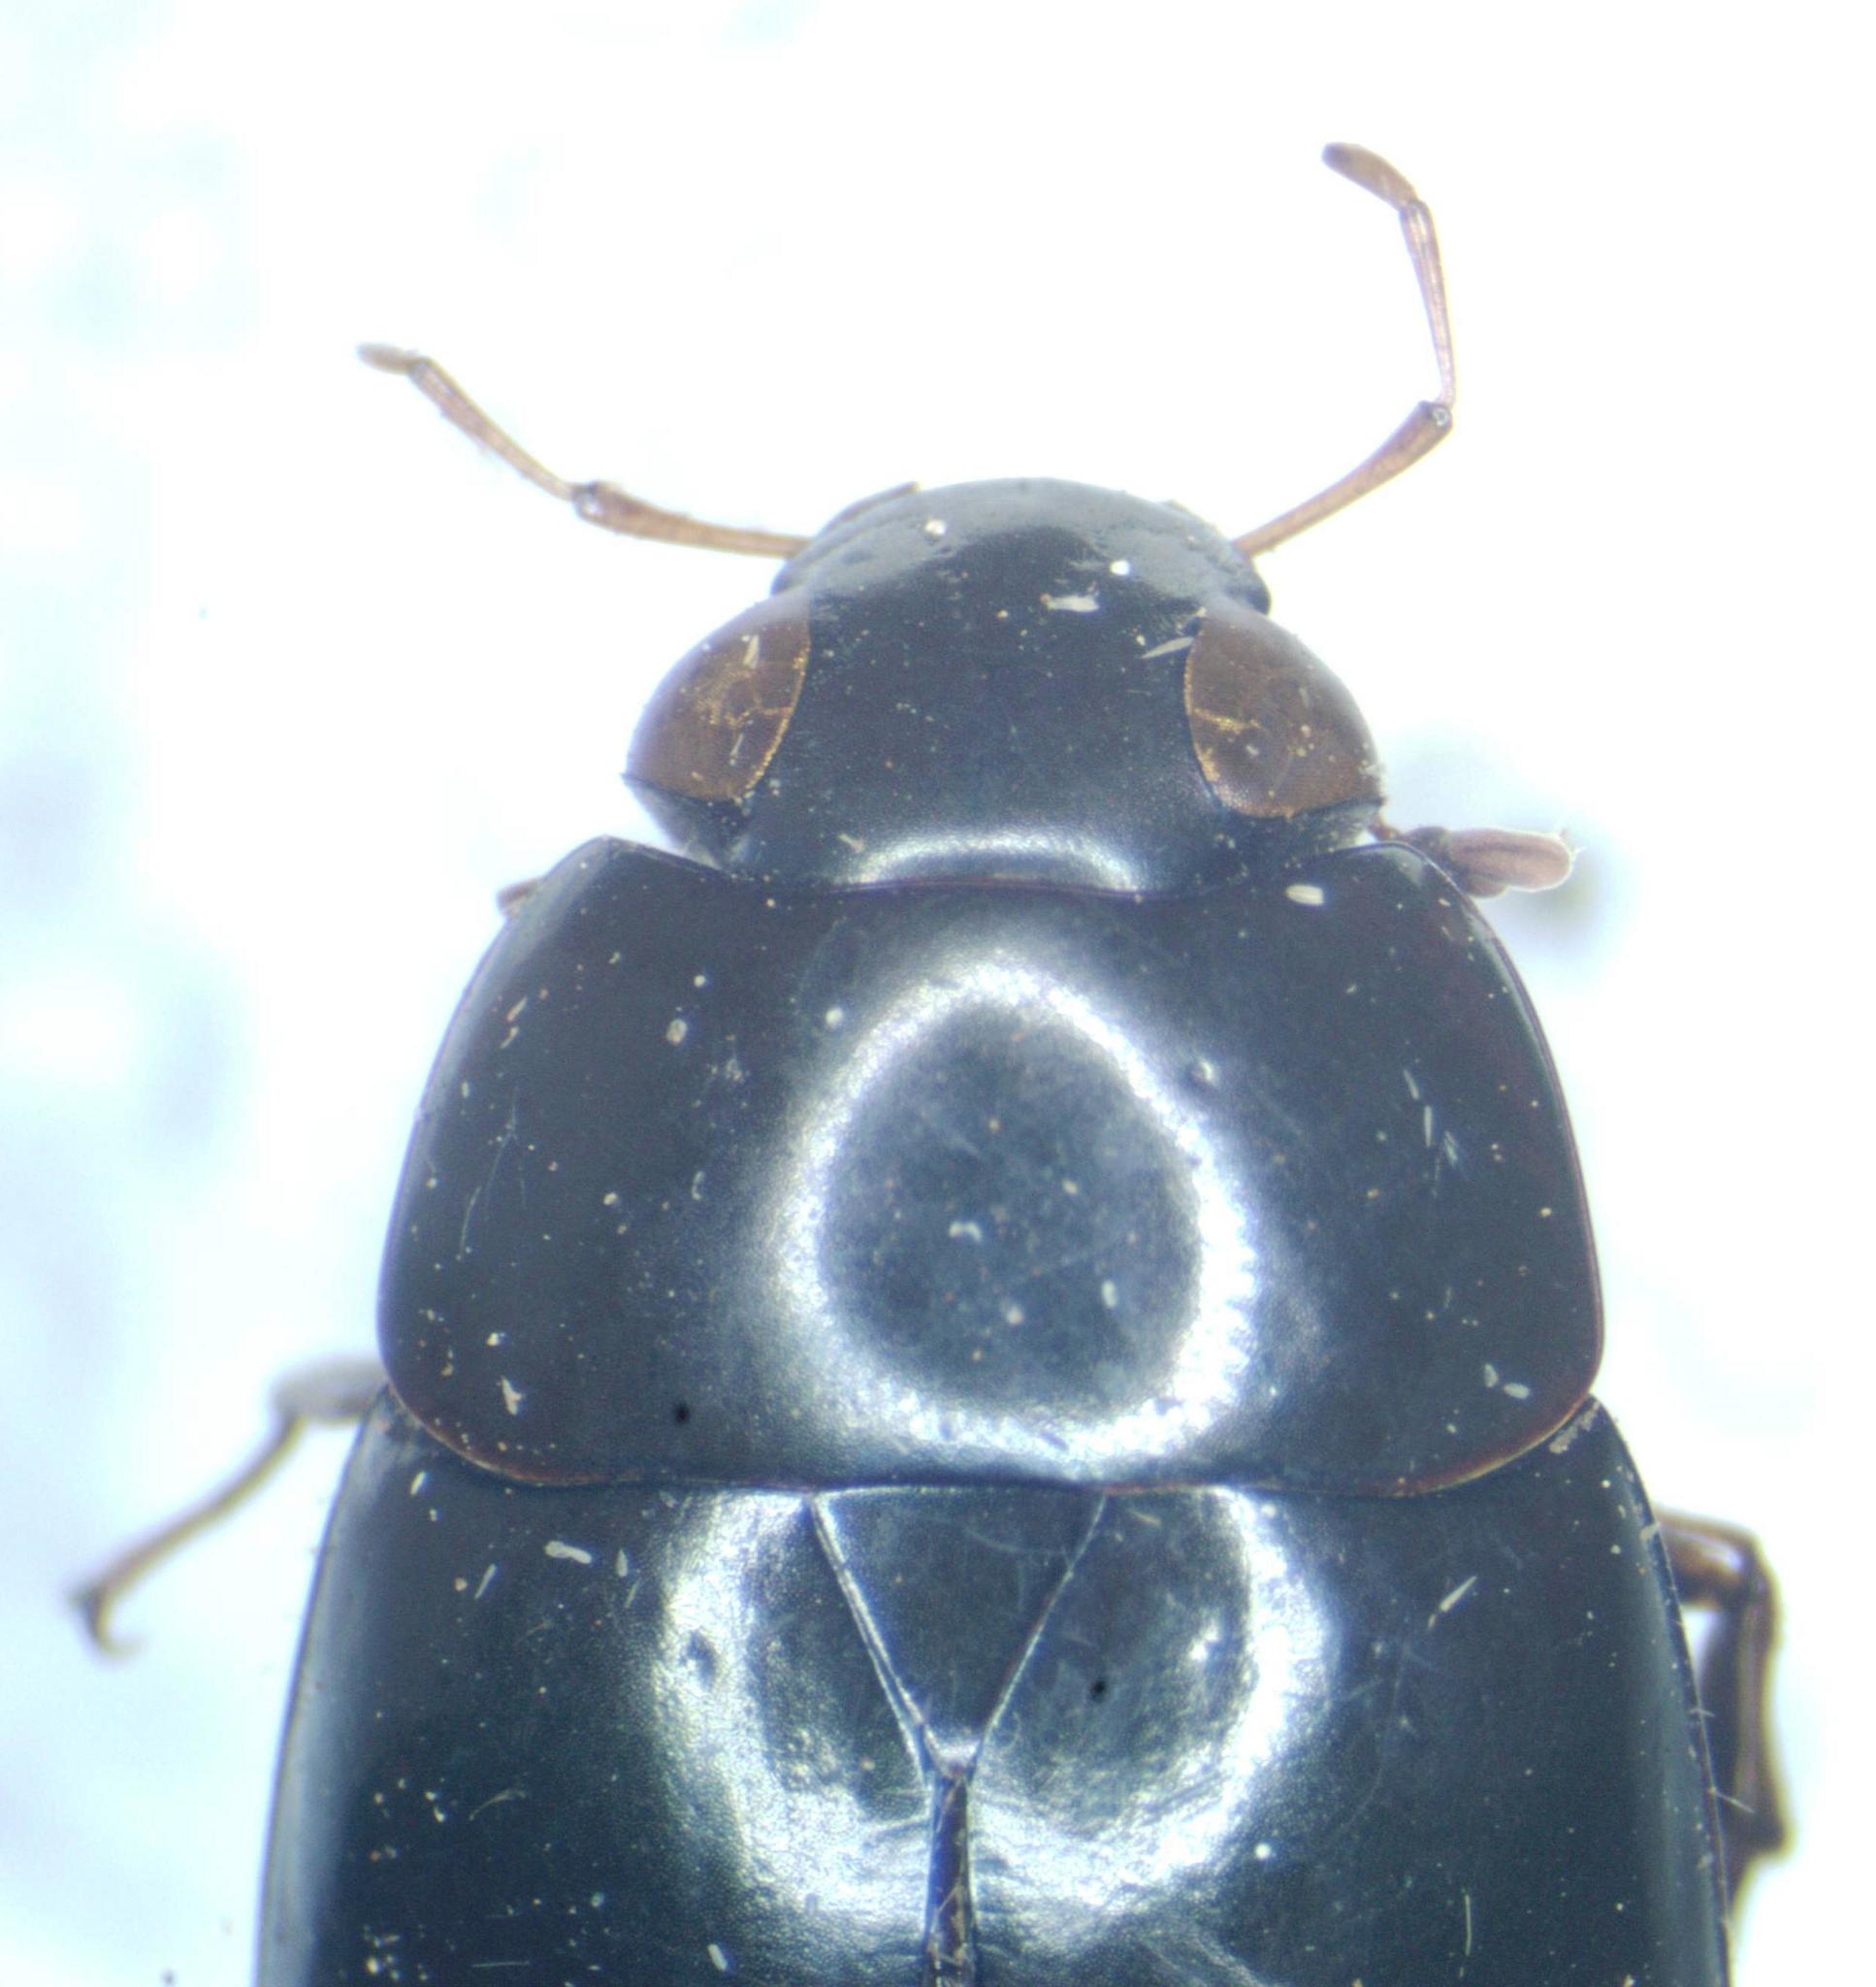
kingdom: Animalia
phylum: Arthropoda
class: Insecta
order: Coleoptera
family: Hydrophilidae
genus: Hydrobiomorpha
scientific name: Hydrobiomorpha
